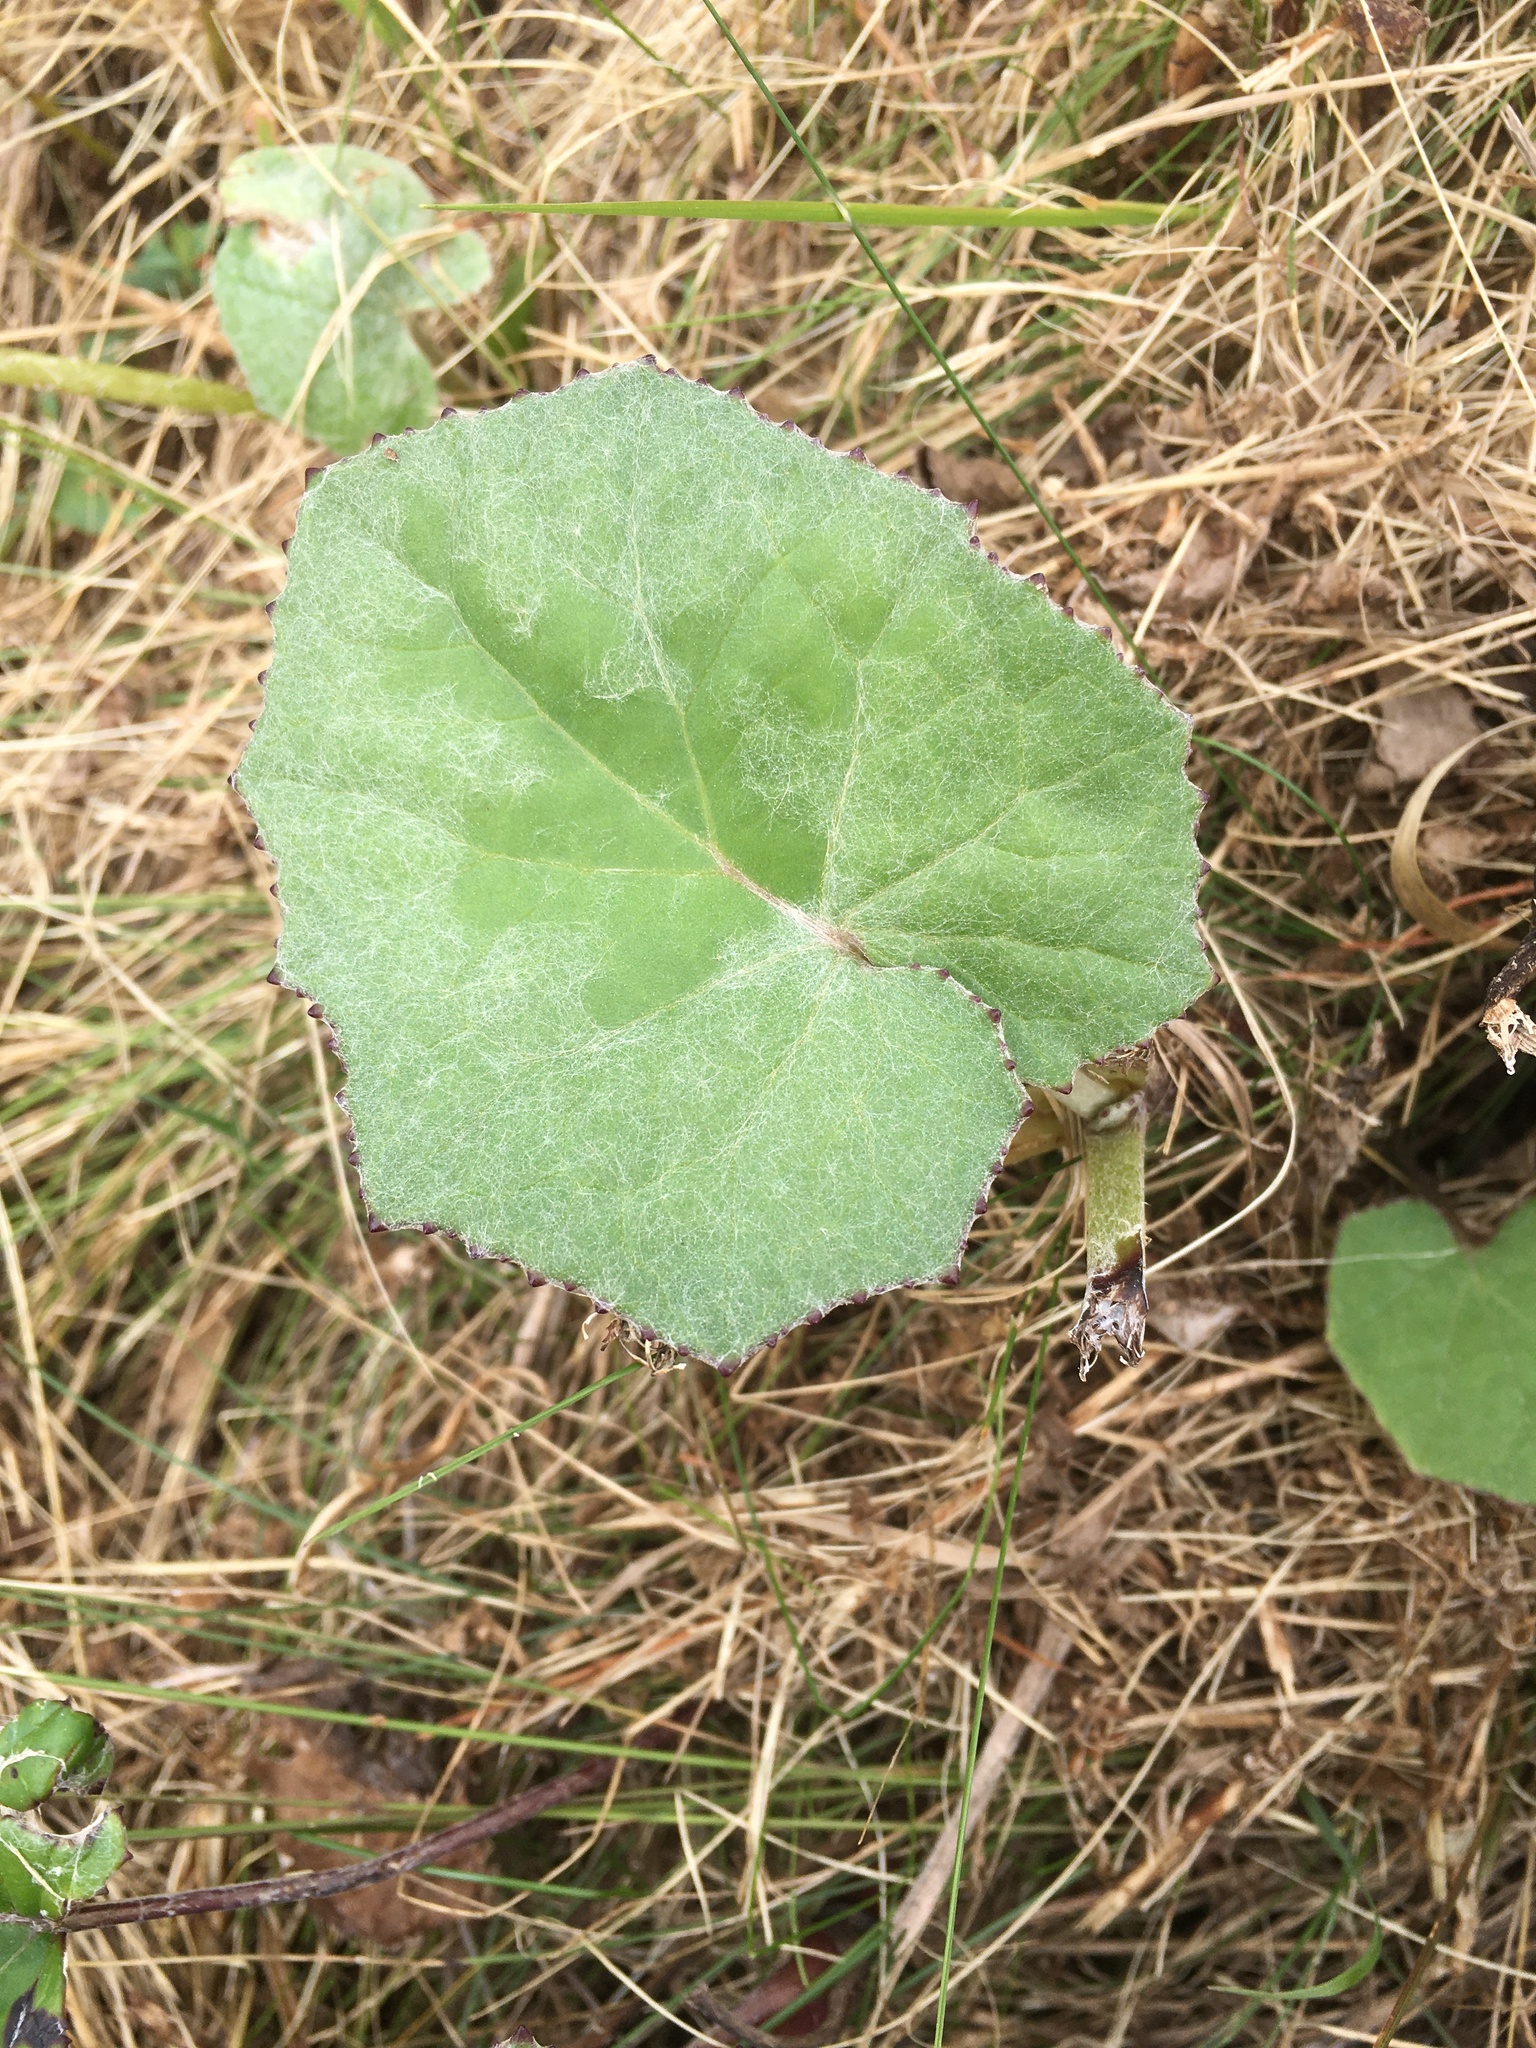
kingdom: Plantae
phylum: Tracheophyta
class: Magnoliopsida
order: Asterales
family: Asteraceae
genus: Tussilago
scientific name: Tussilago farfara
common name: Coltsfoot
